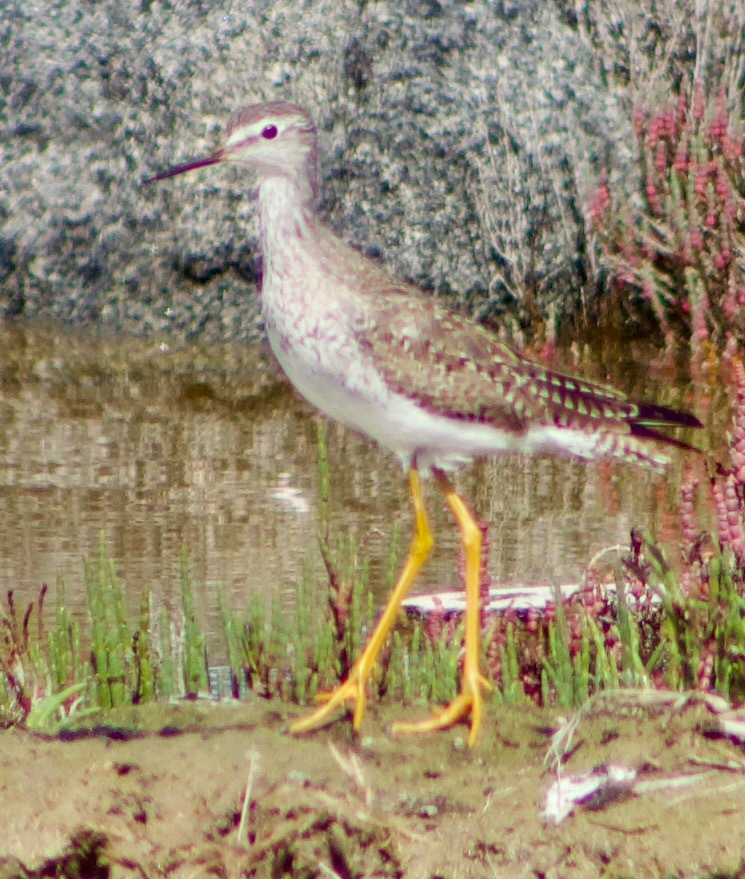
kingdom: Animalia
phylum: Chordata
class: Aves
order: Charadriiformes
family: Scolopacidae
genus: Tringa
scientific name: Tringa flavipes
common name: Lesser yellowlegs
